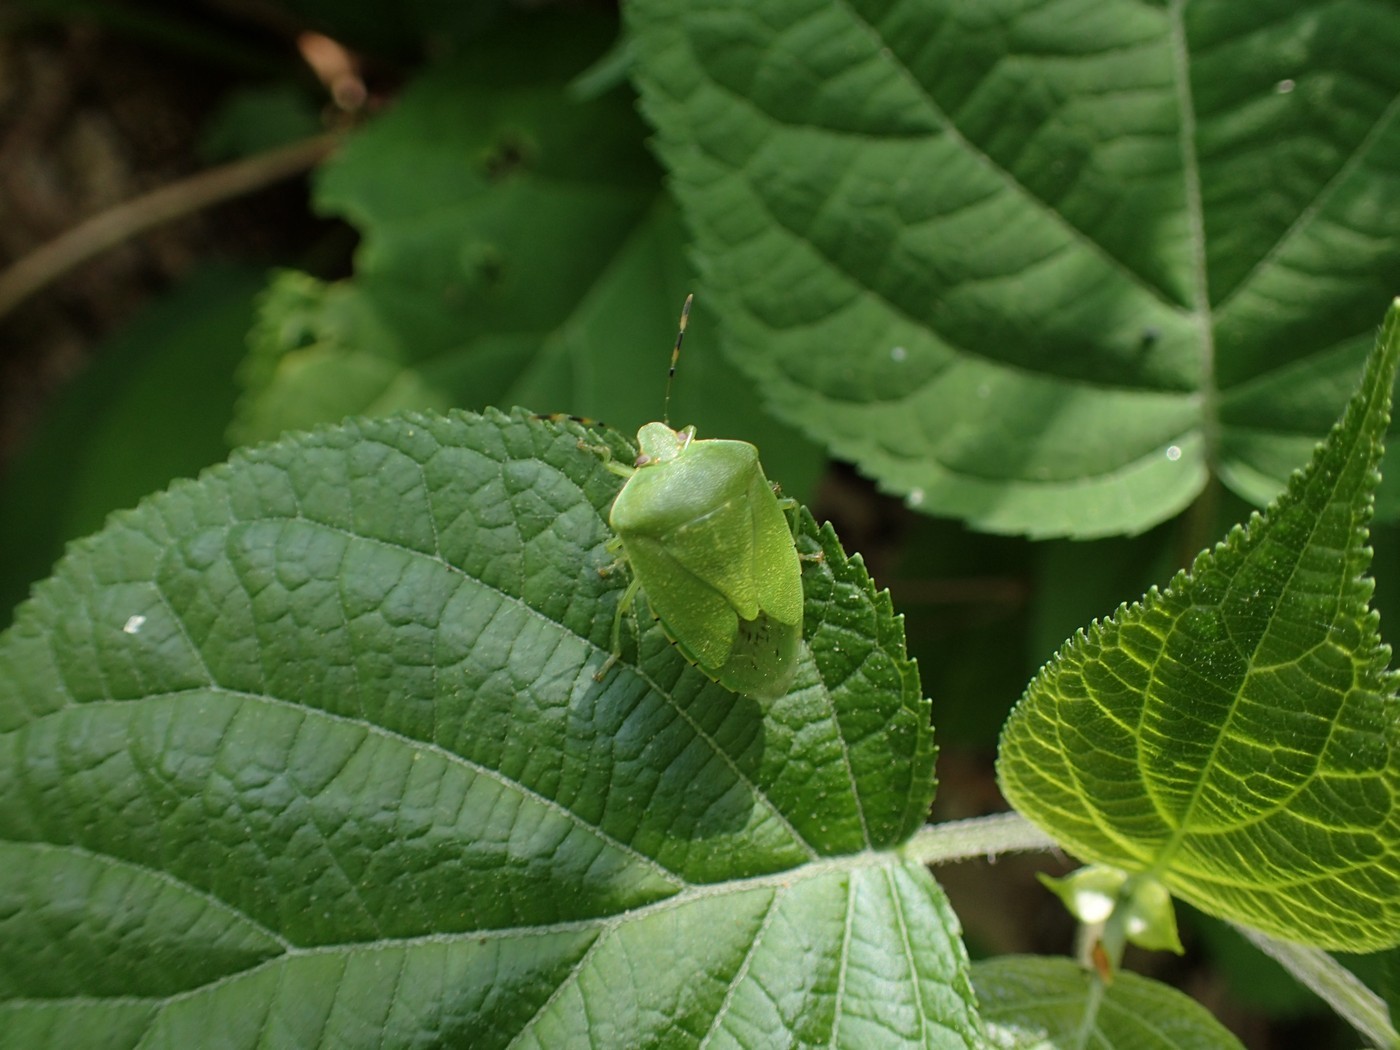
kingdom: Animalia
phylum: Arthropoda
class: Insecta
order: Hemiptera
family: Pentatomidae
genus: Chinavia
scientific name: Chinavia hilaris
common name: Green stink bug
